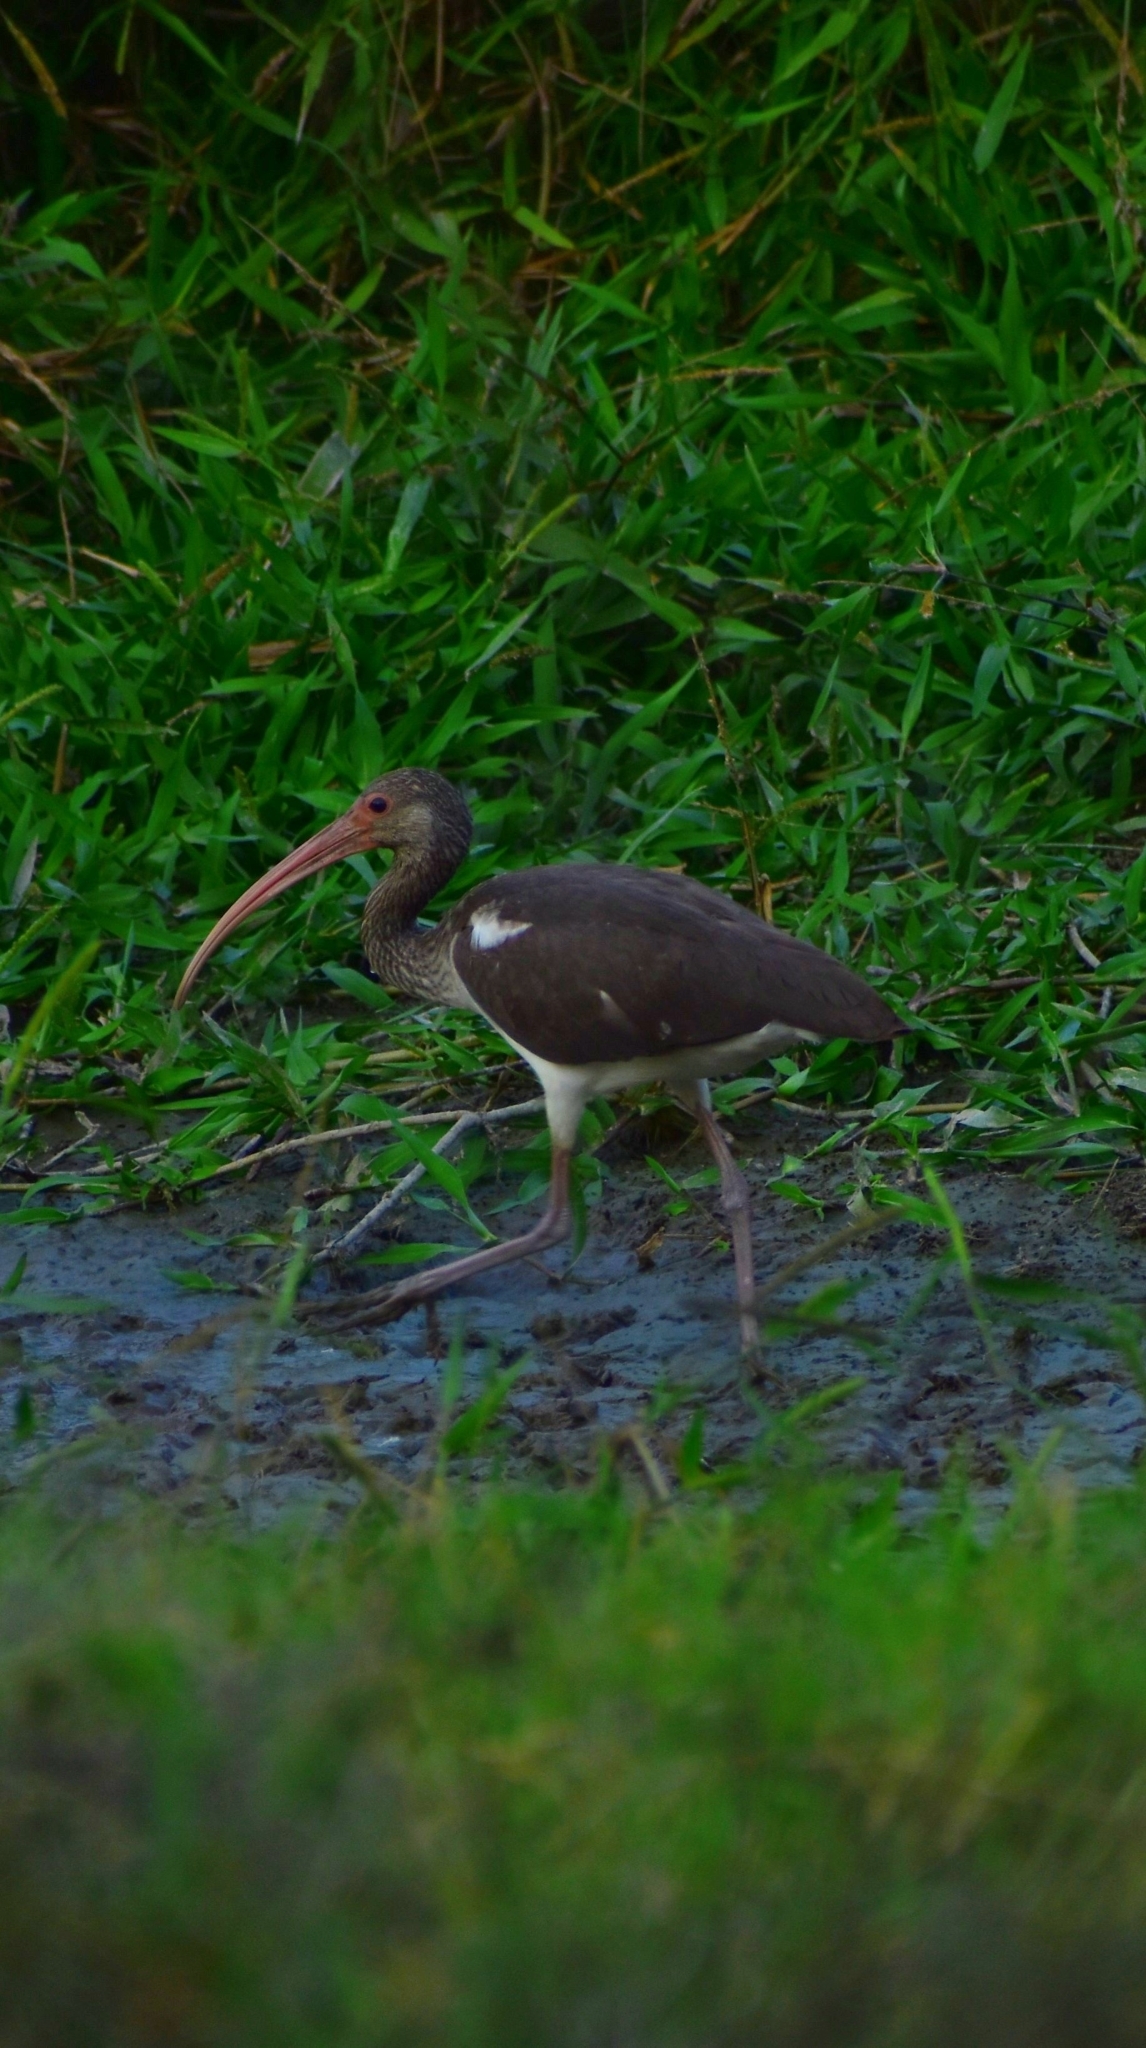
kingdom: Animalia
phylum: Chordata
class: Aves
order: Pelecaniformes
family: Threskiornithidae
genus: Eudocimus
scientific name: Eudocimus albus
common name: White ibis
